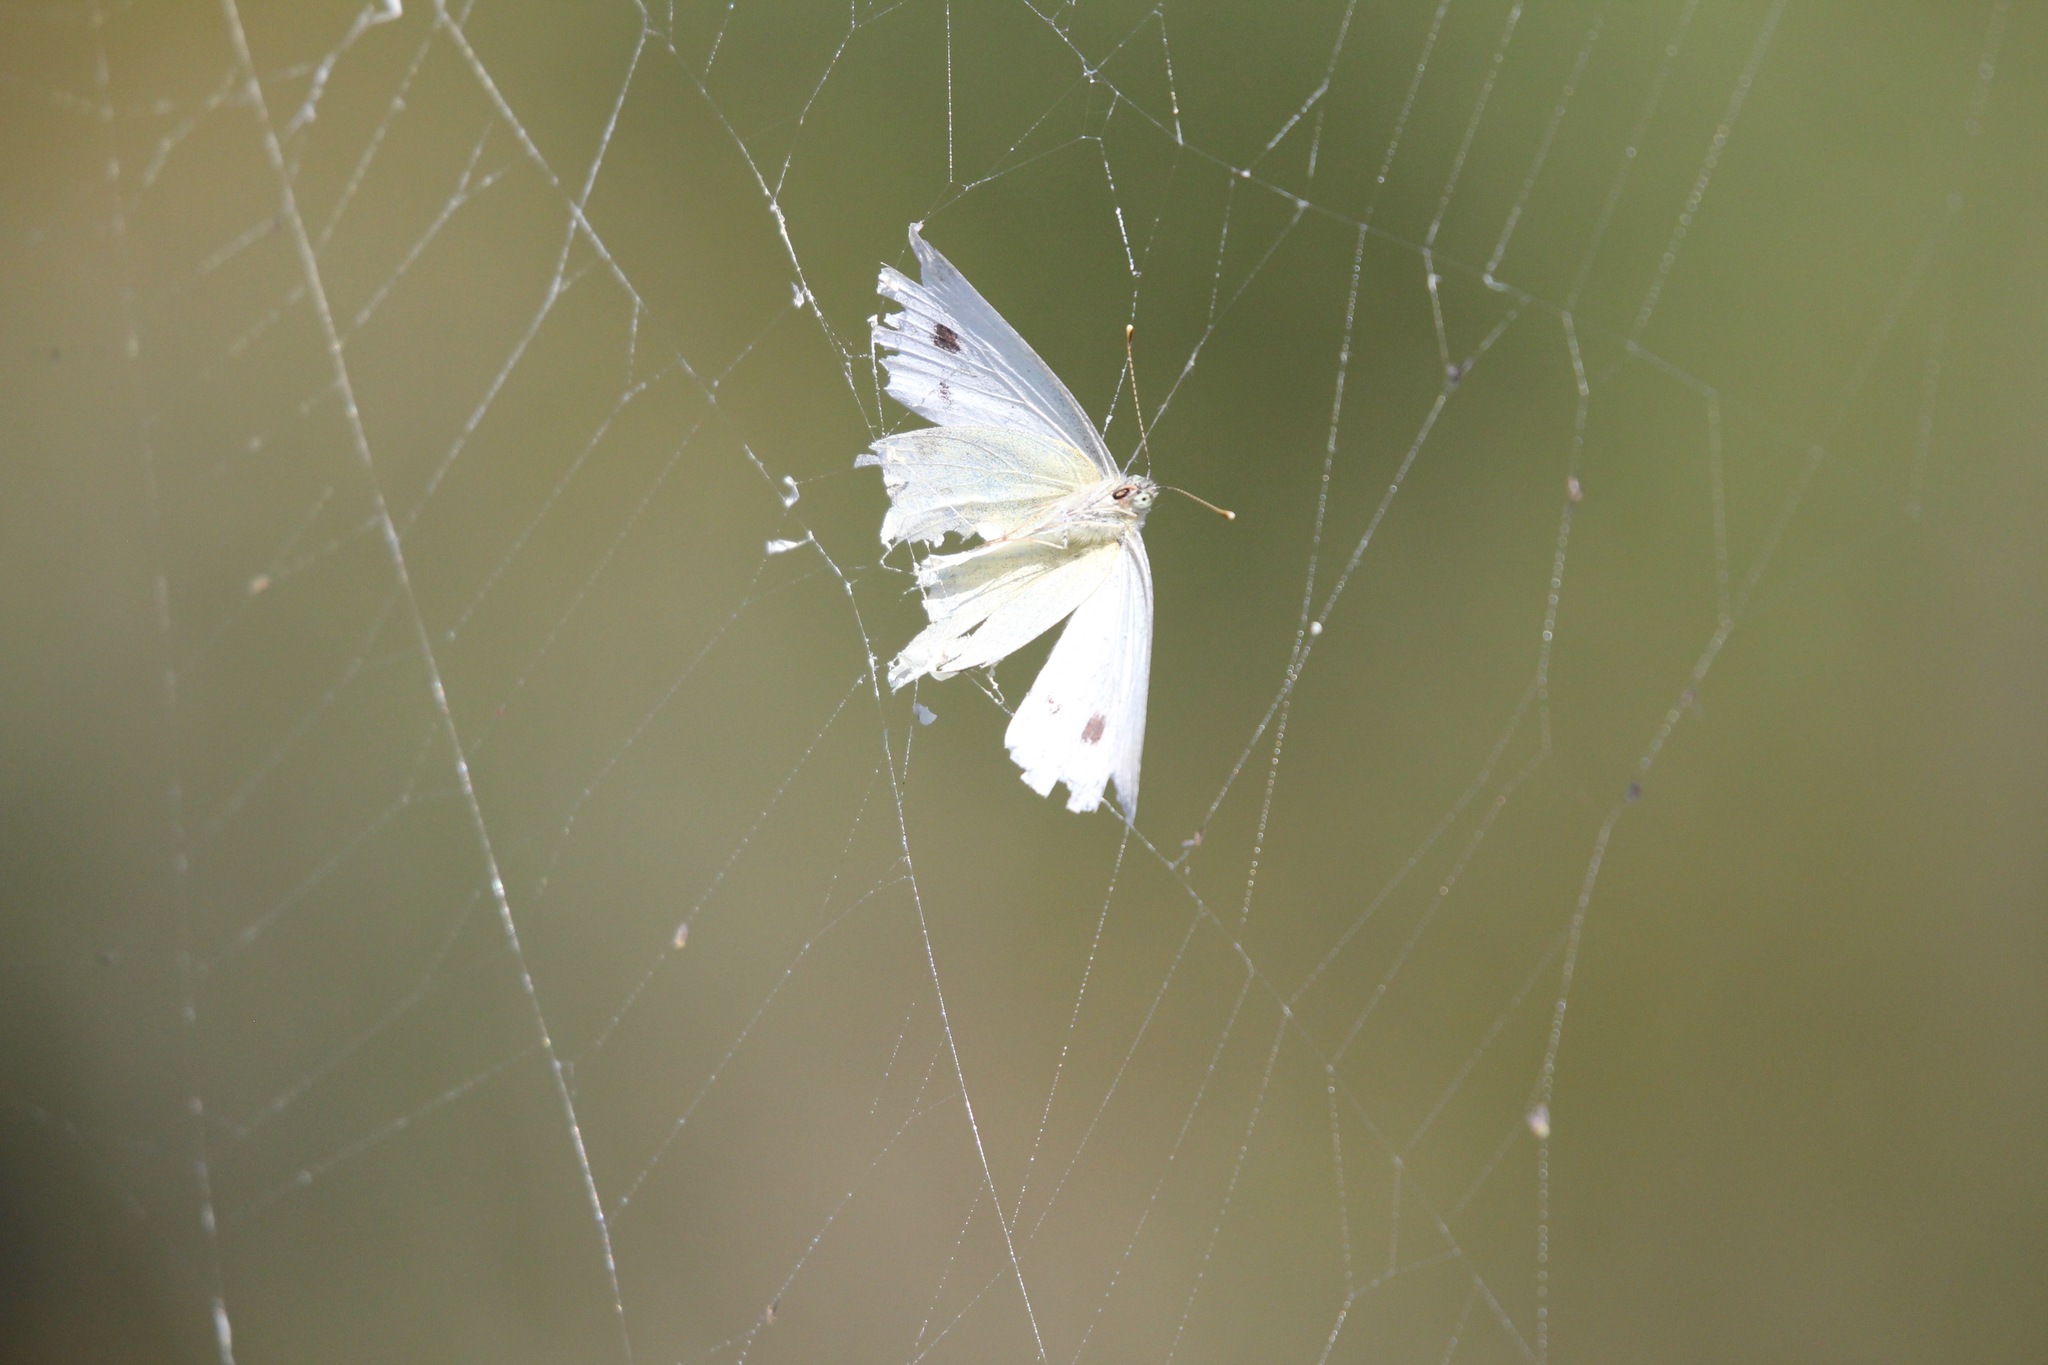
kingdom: Animalia
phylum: Arthropoda
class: Insecta
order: Lepidoptera
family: Pieridae
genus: Pieris
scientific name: Pieris rapae
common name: Small white
